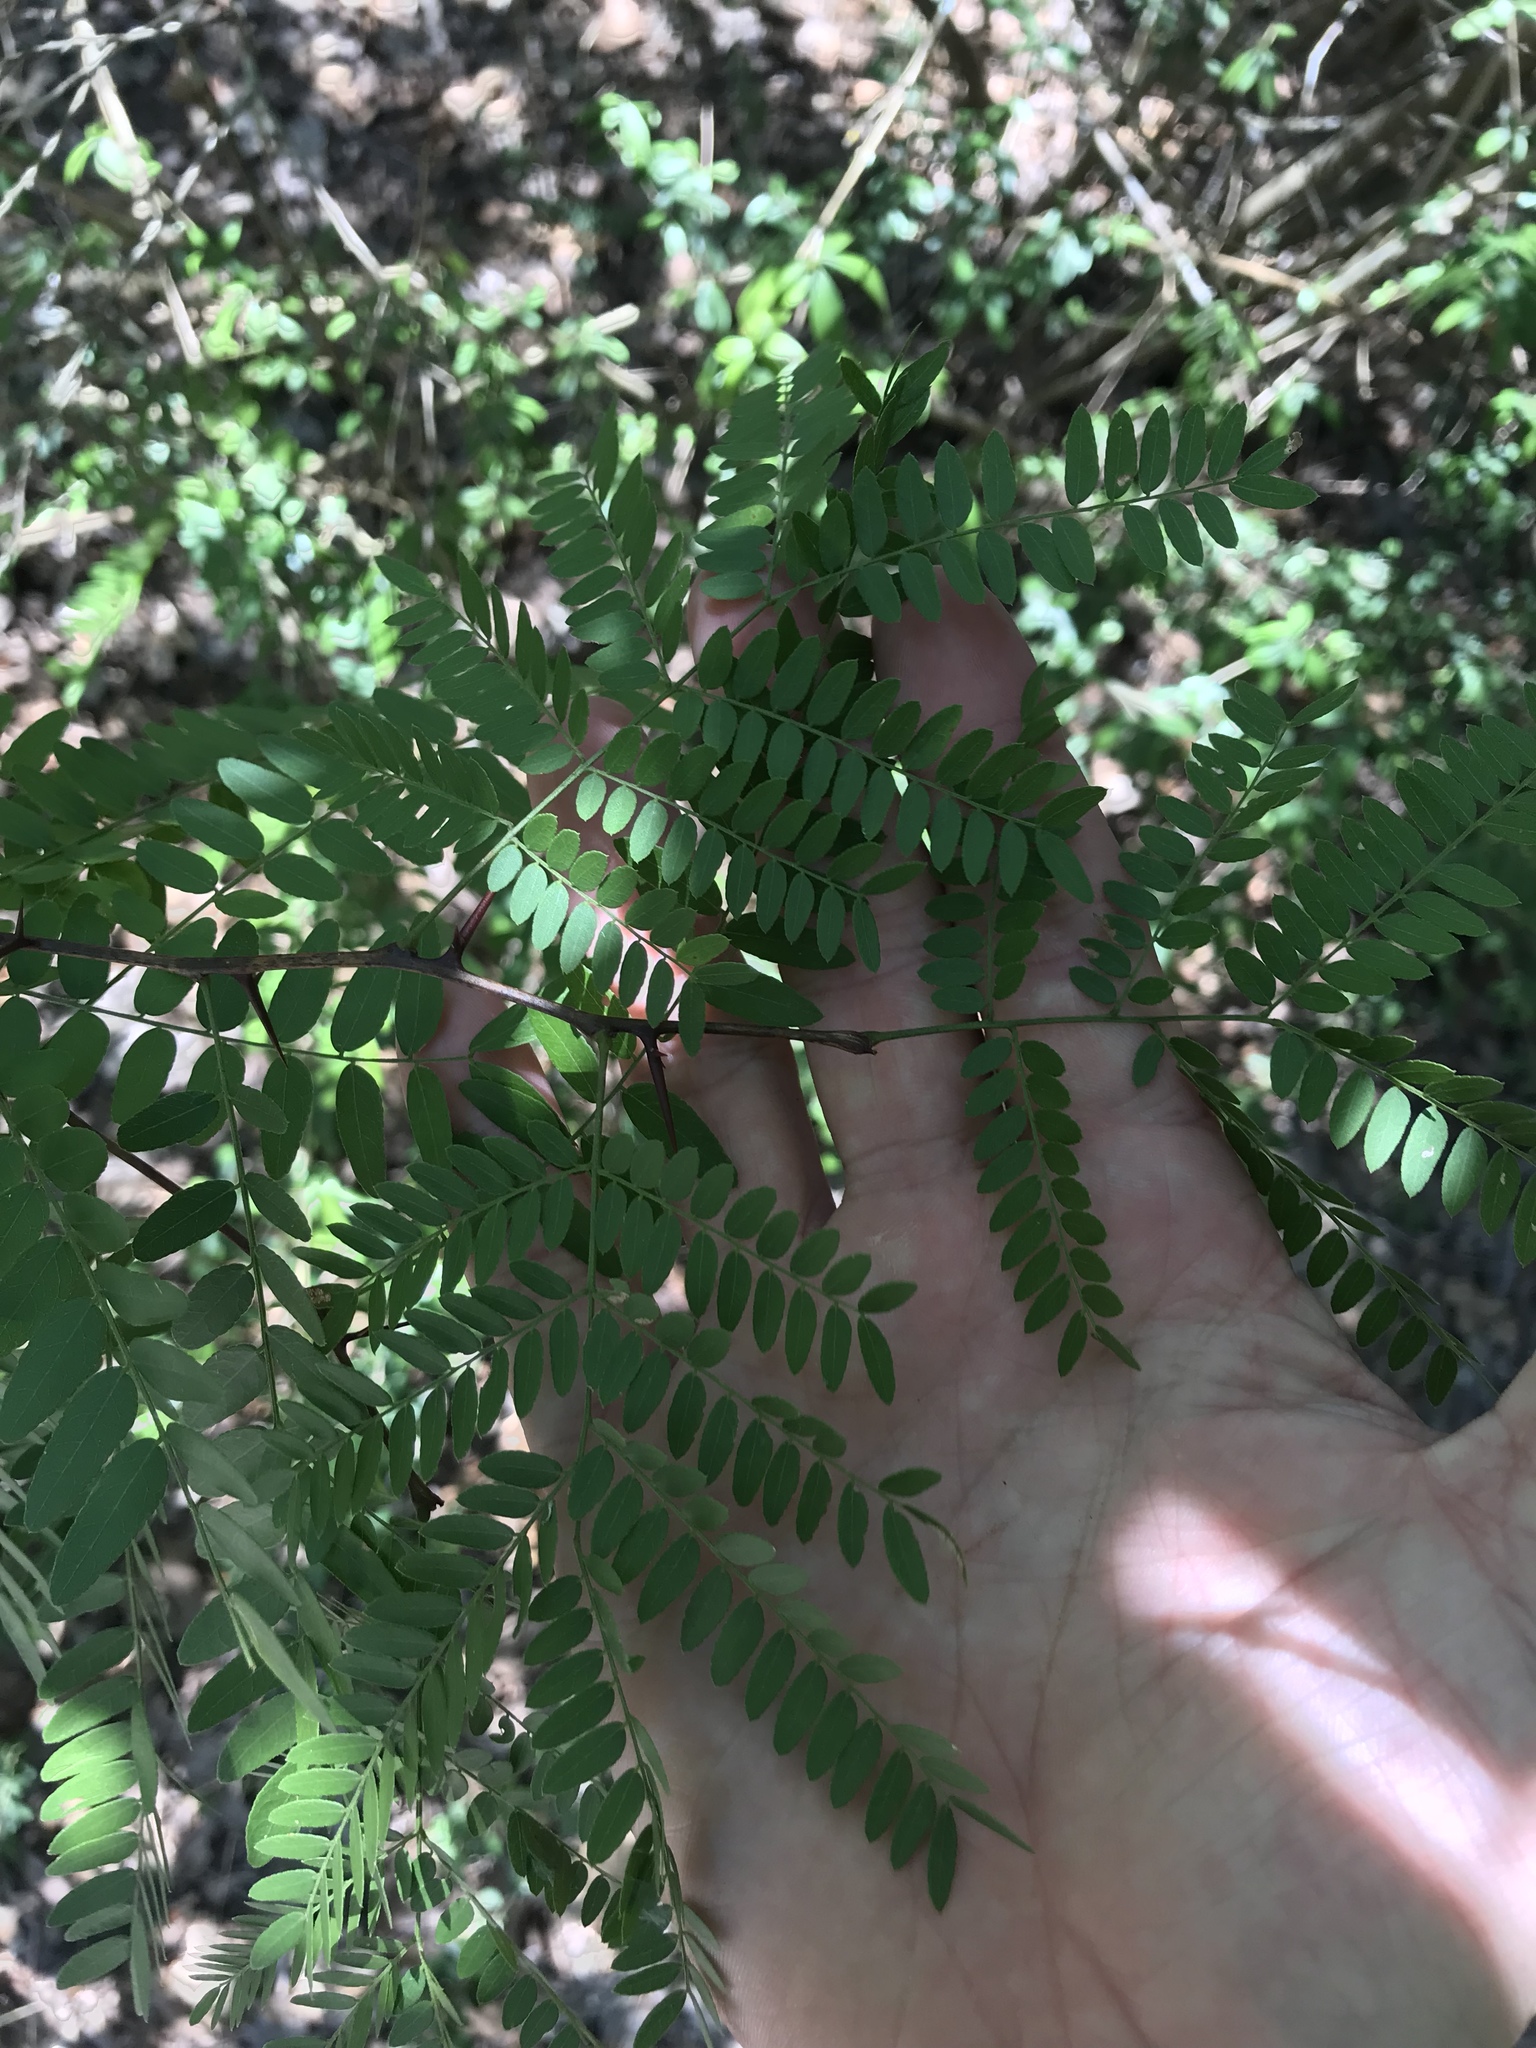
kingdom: Plantae
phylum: Tracheophyta
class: Magnoliopsida
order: Fabales
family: Fabaceae
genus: Gleditsia
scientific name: Gleditsia triacanthos
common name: Common honeylocust
